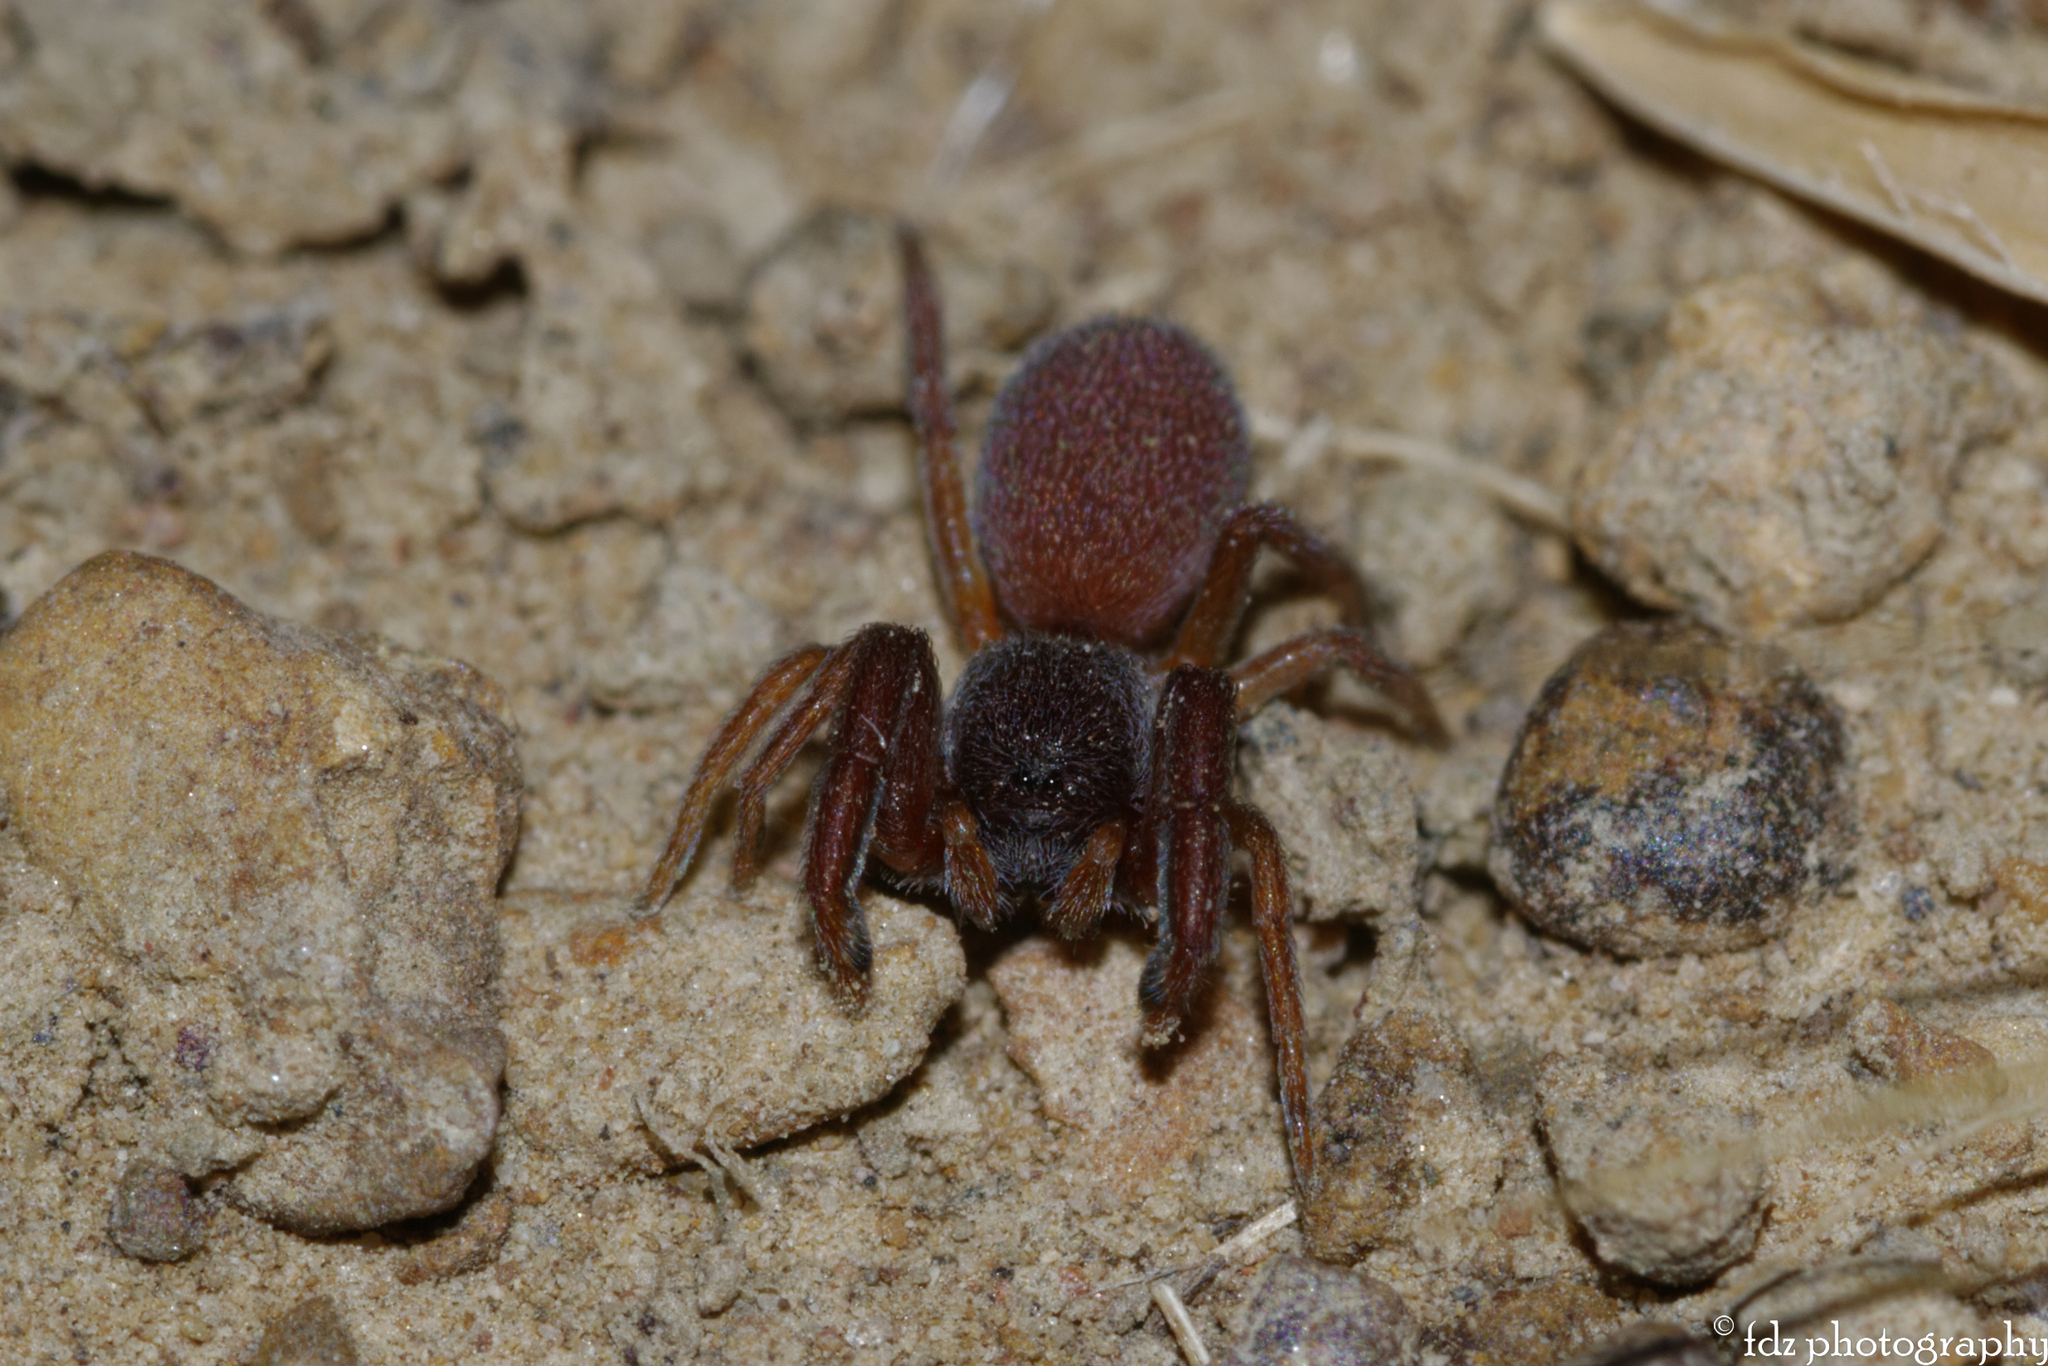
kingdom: Animalia
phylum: Arthropoda
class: Arachnida
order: Araneae
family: Palpimanidae
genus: Palpimanus
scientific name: Palpimanus gibbulus
